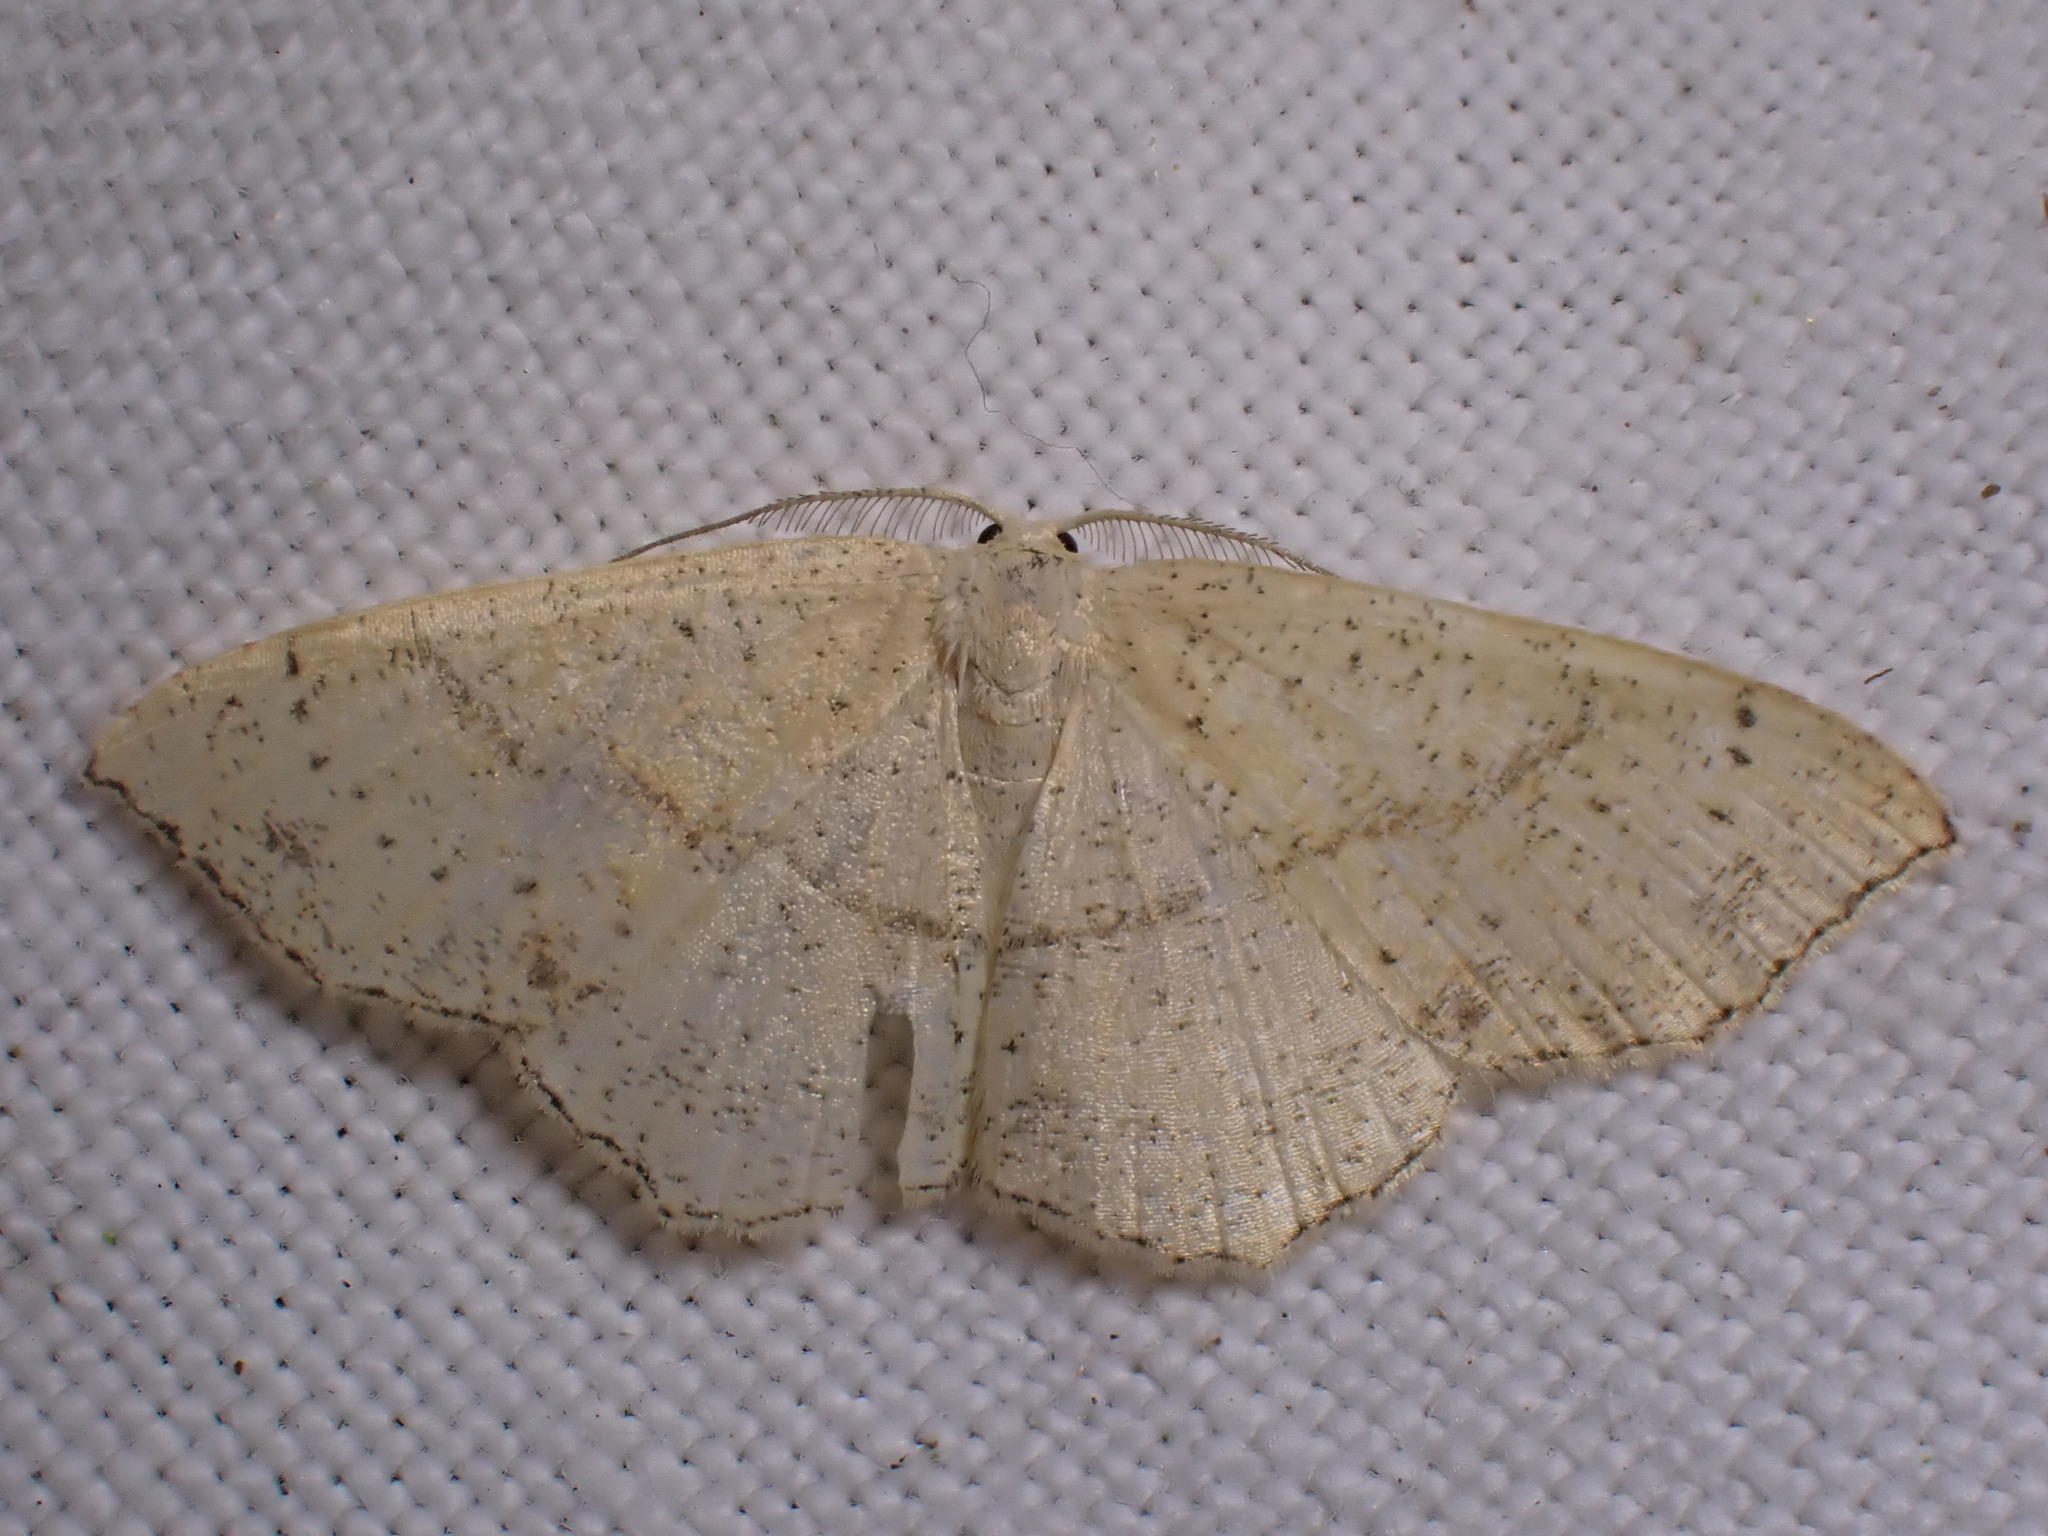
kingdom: Animalia
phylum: Arthropoda
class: Insecta
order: Lepidoptera
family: Geometridae
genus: Cyclophora
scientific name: Cyclophora punctaria
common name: Maiden's blush
